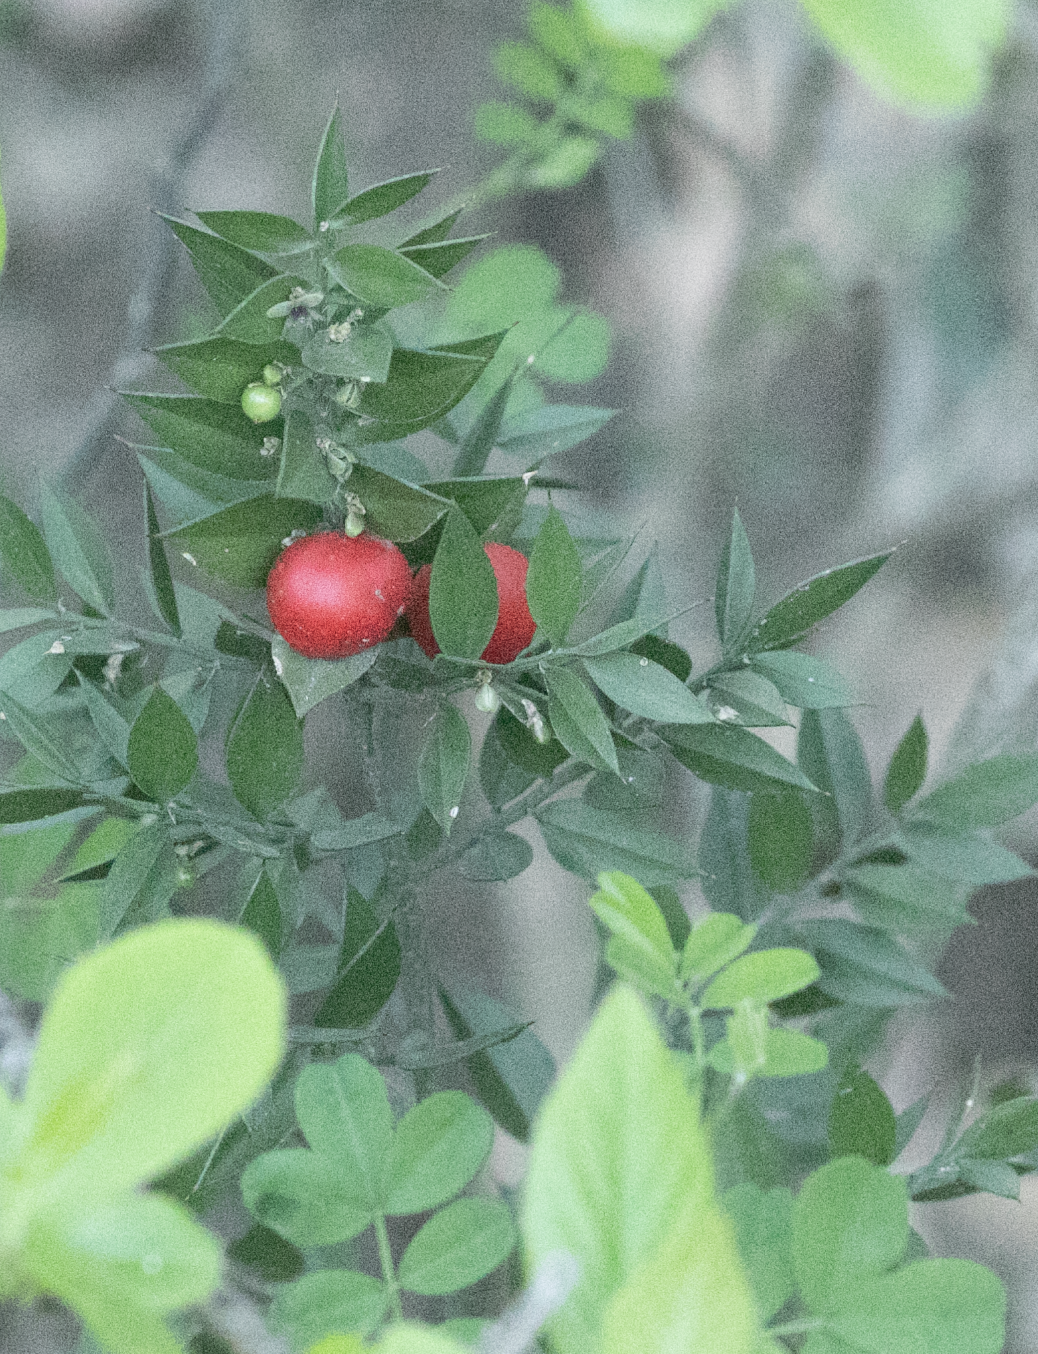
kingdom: Plantae
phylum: Tracheophyta
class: Liliopsida
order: Asparagales
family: Asparagaceae
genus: Ruscus
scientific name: Ruscus aculeatus
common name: Butcher's-broom
